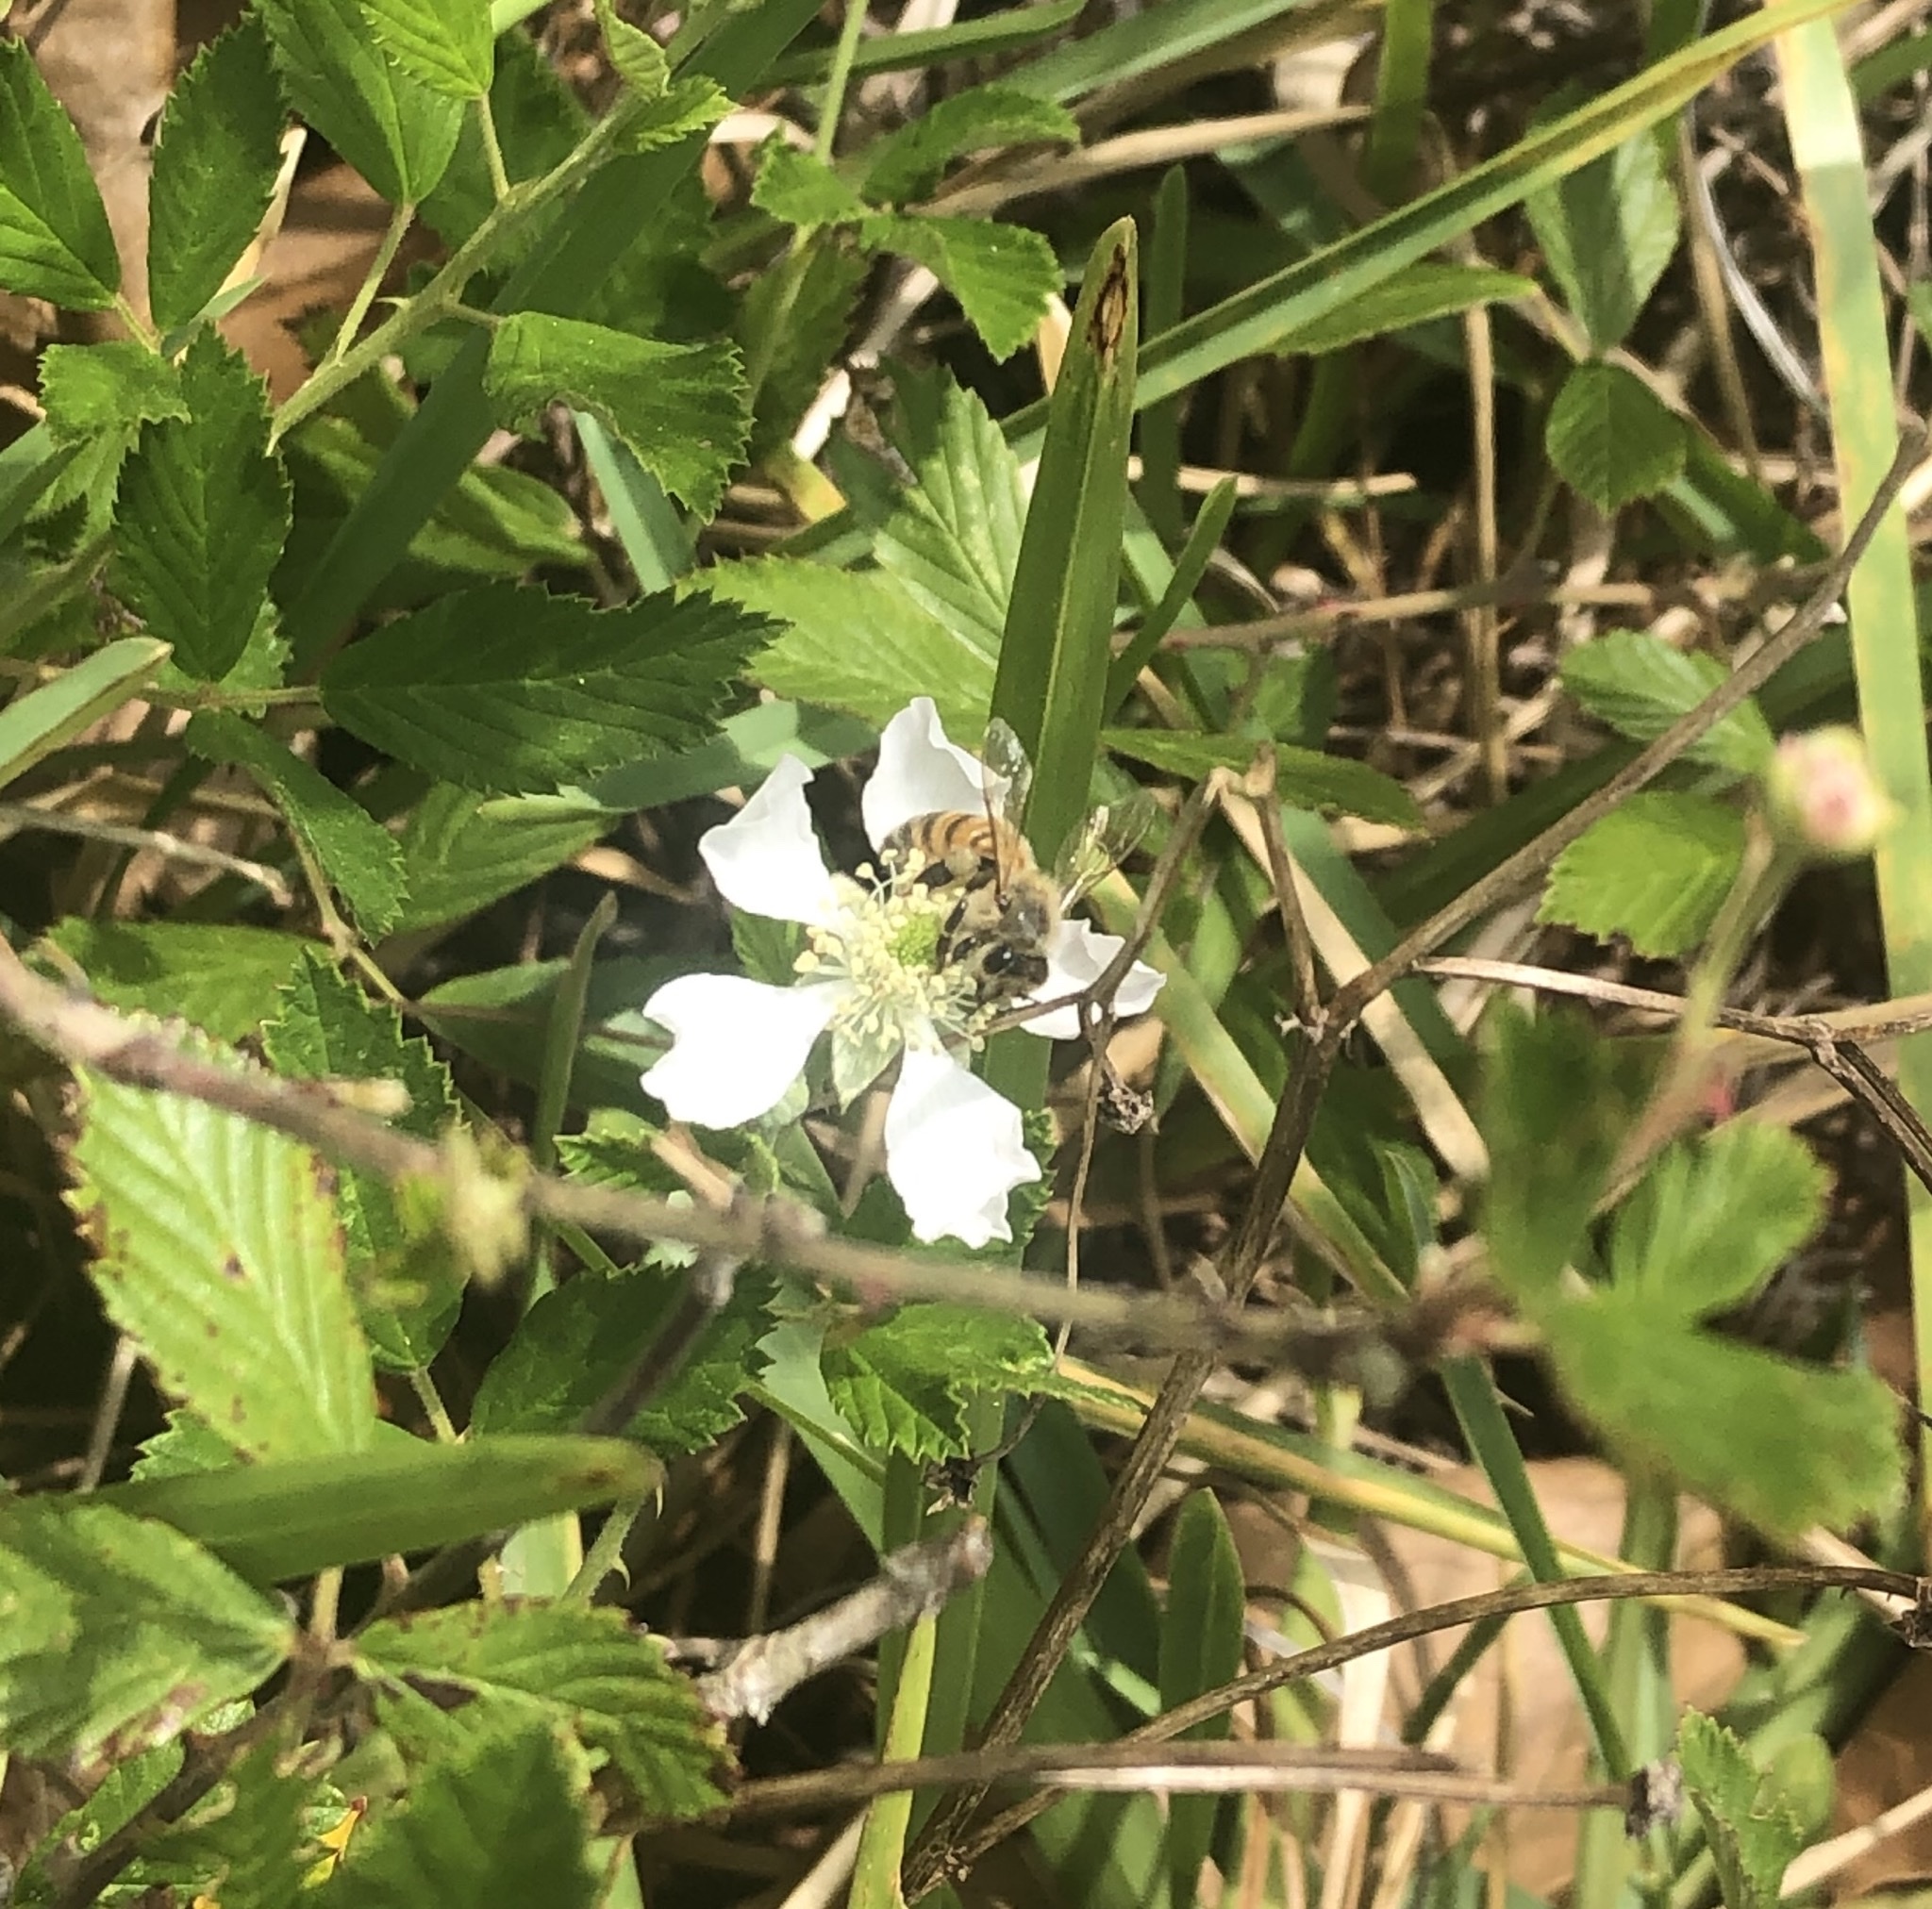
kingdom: Animalia
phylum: Arthropoda
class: Insecta
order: Hymenoptera
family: Apidae
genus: Apis
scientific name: Apis mellifera
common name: Honey bee
